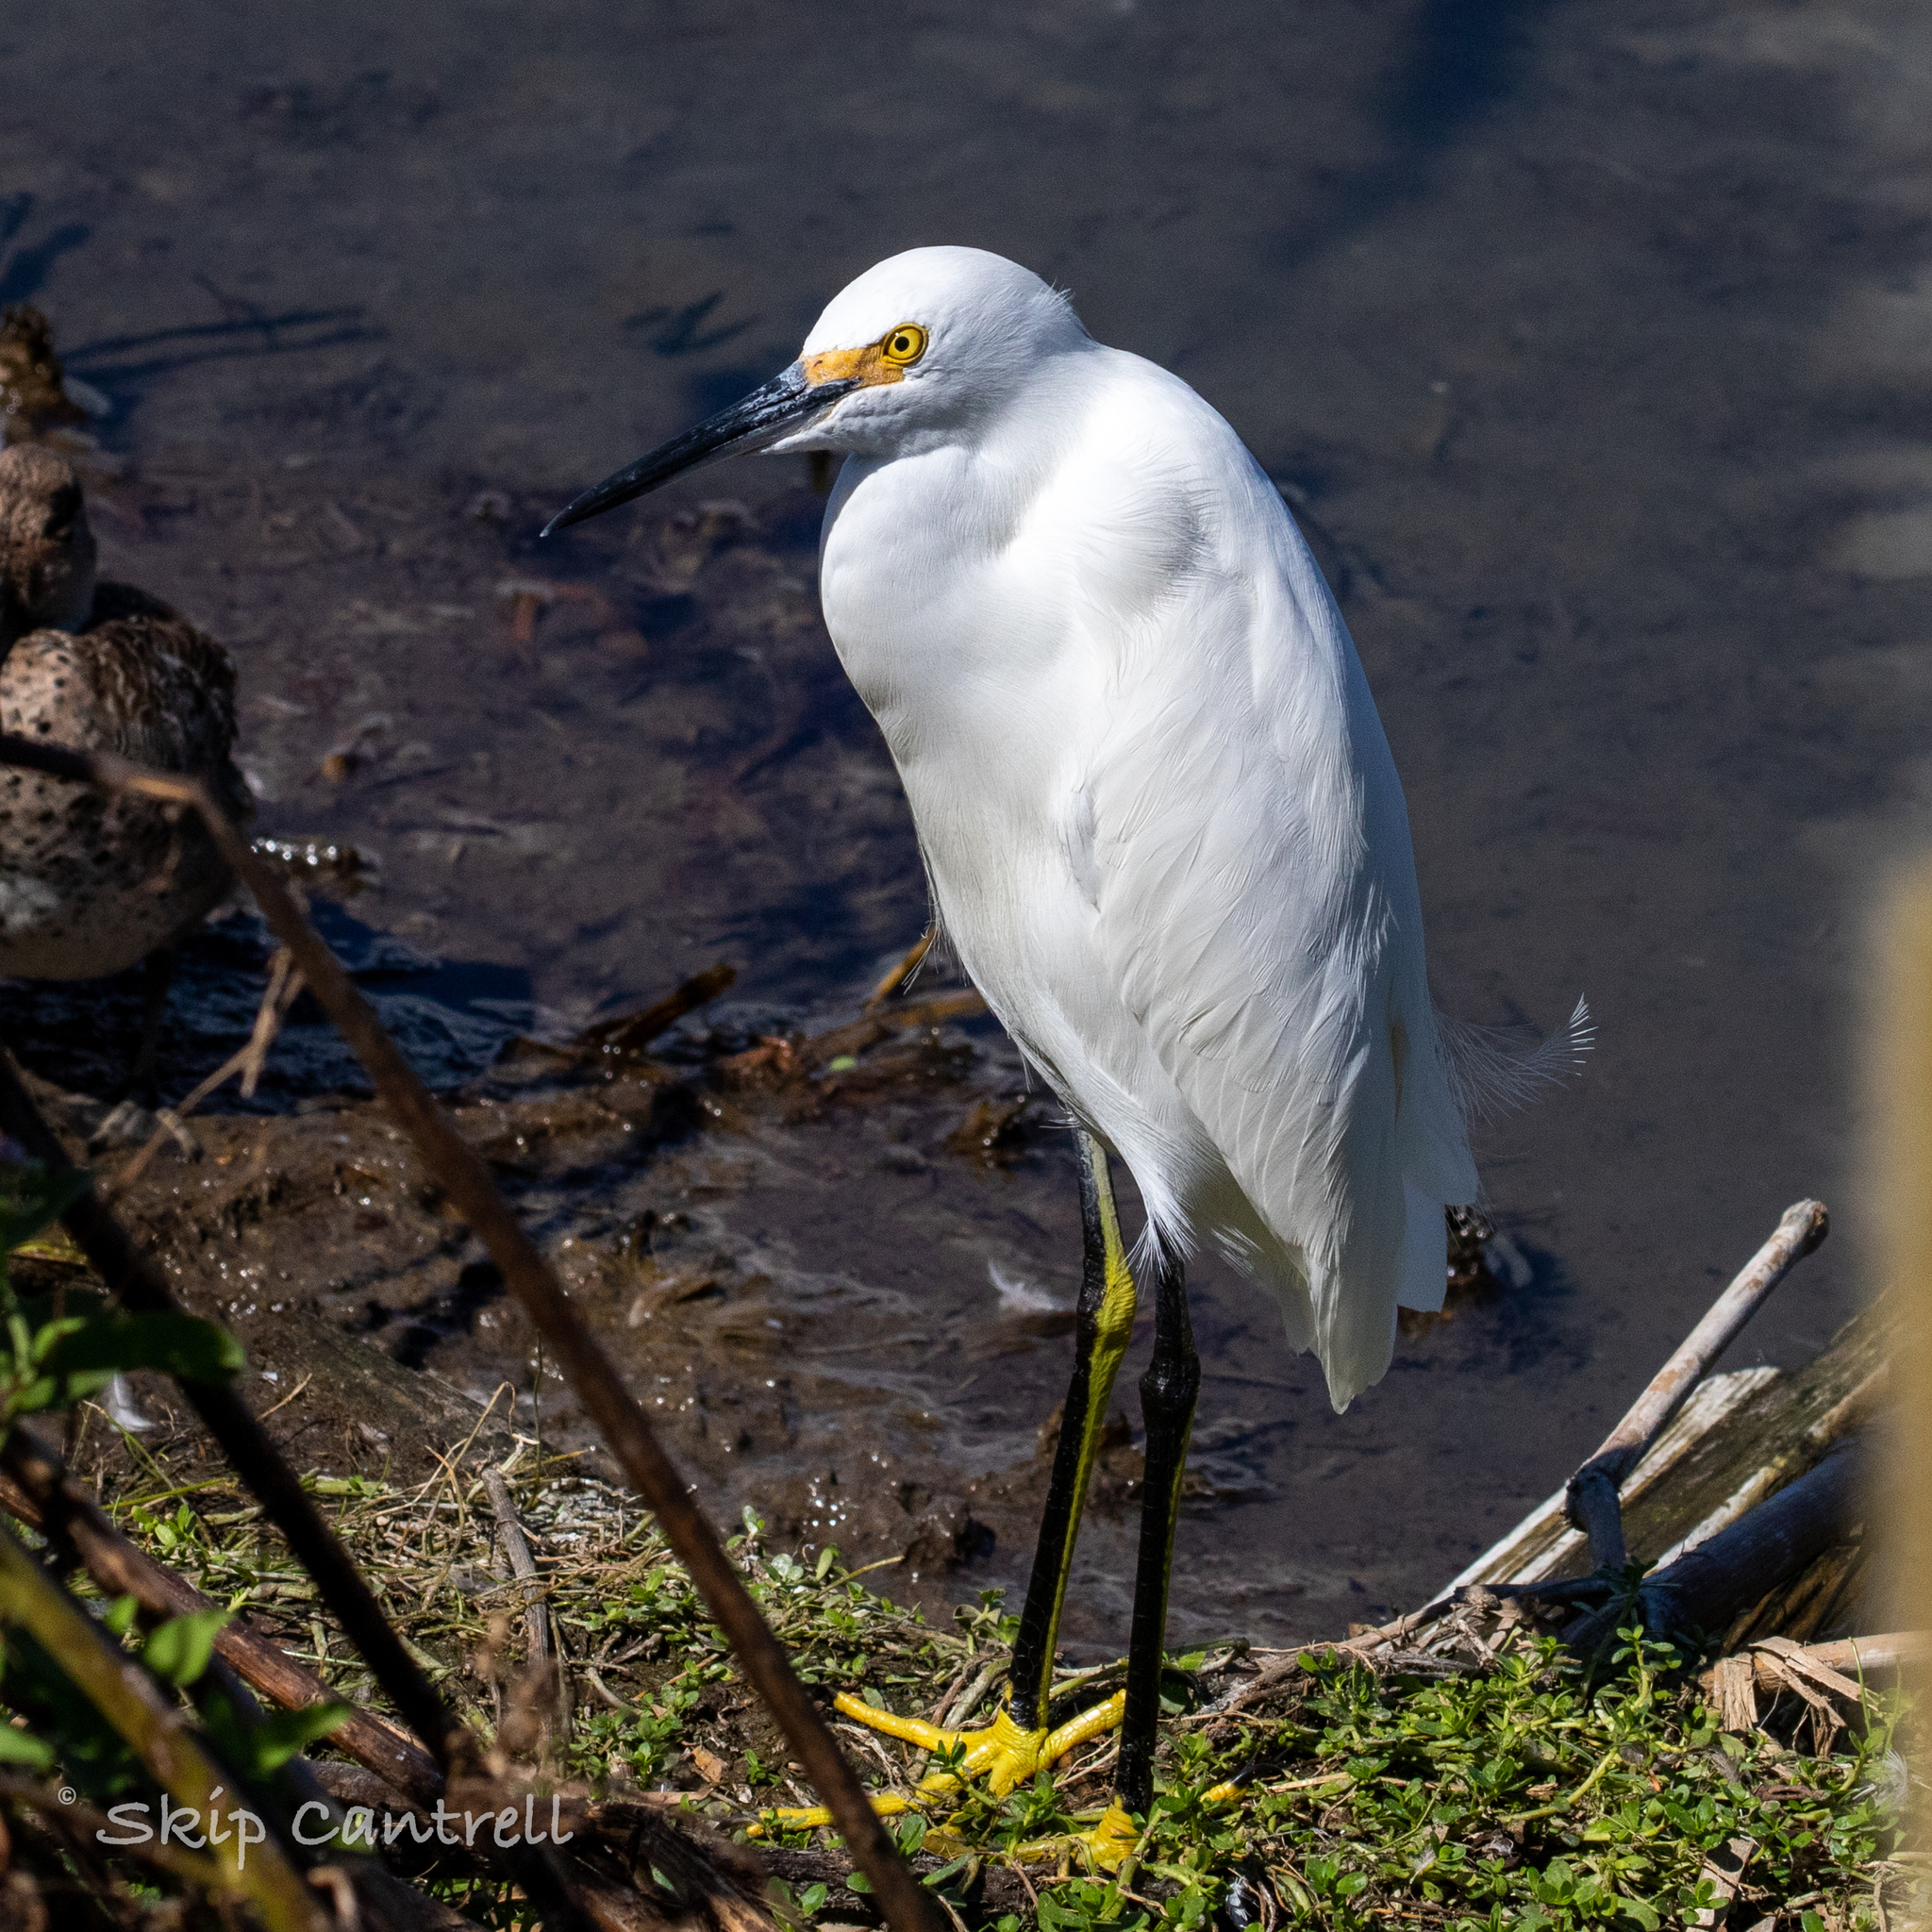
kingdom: Animalia
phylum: Chordata
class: Aves
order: Pelecaniformes
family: Ardeidae
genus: Egretta
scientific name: Egretta thula
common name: Snowy egret
